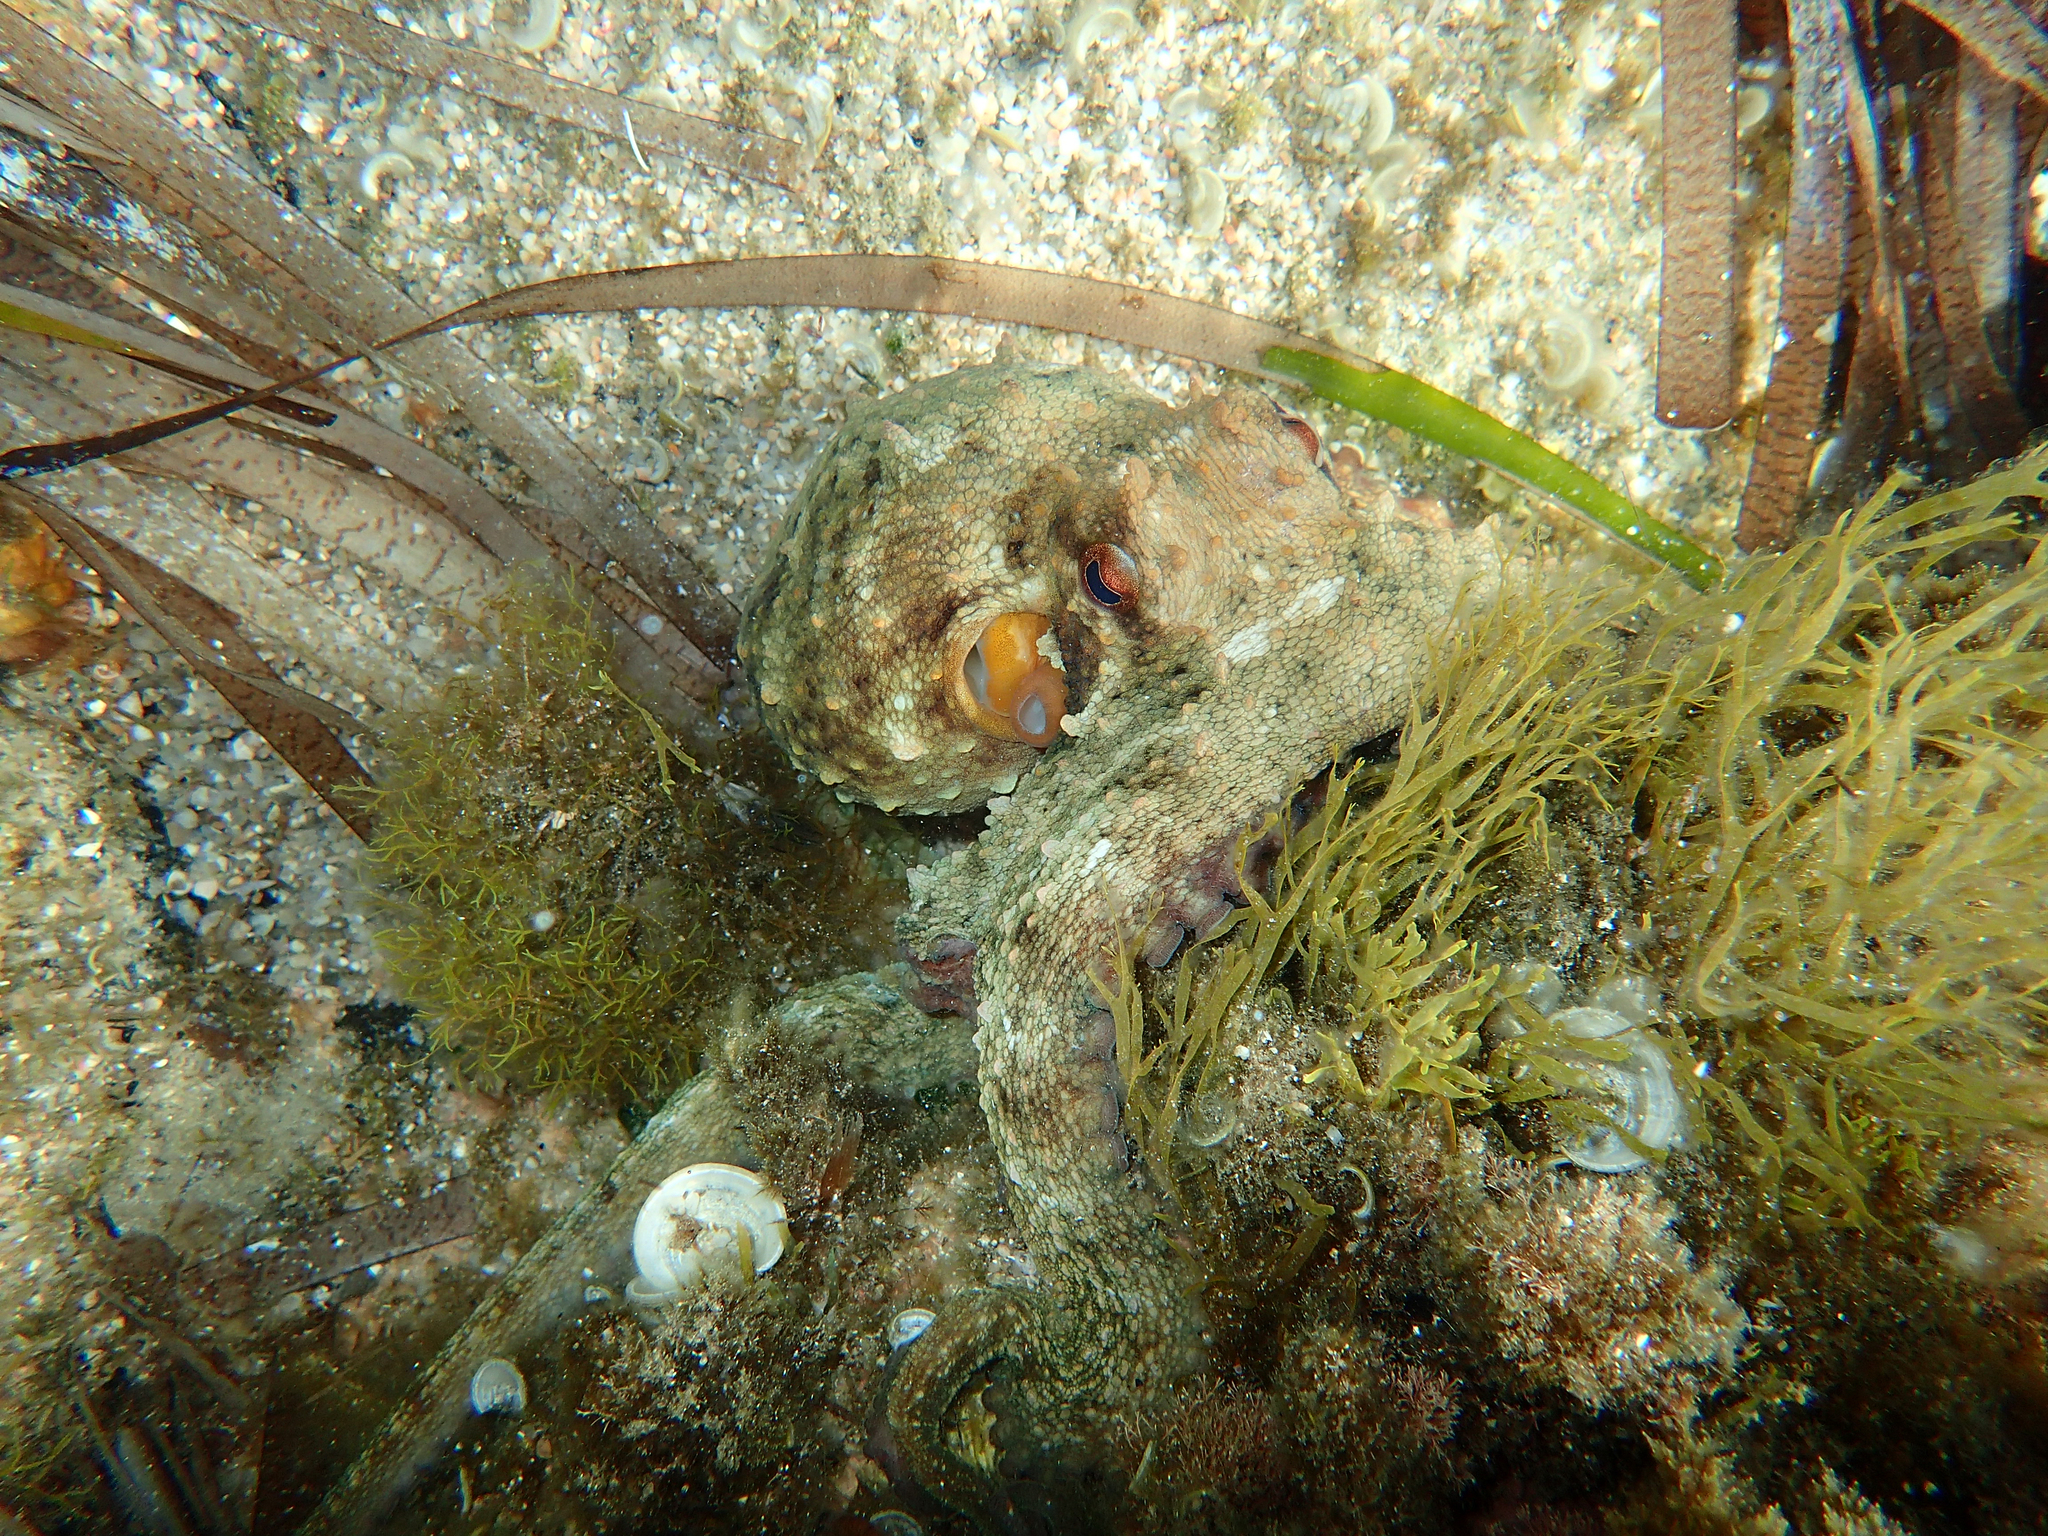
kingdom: Animalia
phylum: Mollusca
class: Cephalopoda
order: Octopoda
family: Octopodidae
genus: Octopus
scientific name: Octopus vulgaris
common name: Common octopus
